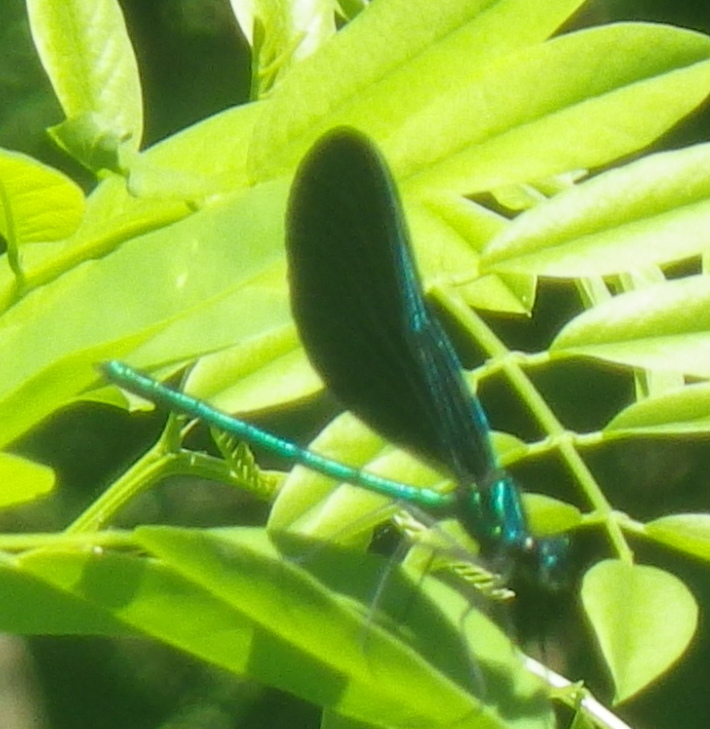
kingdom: Animalia
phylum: Arthropoda
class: Insecta
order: Odonata
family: Calopterygidae
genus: Calopteryx
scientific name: Calopteryx maculata
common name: Ebony jewelwing
